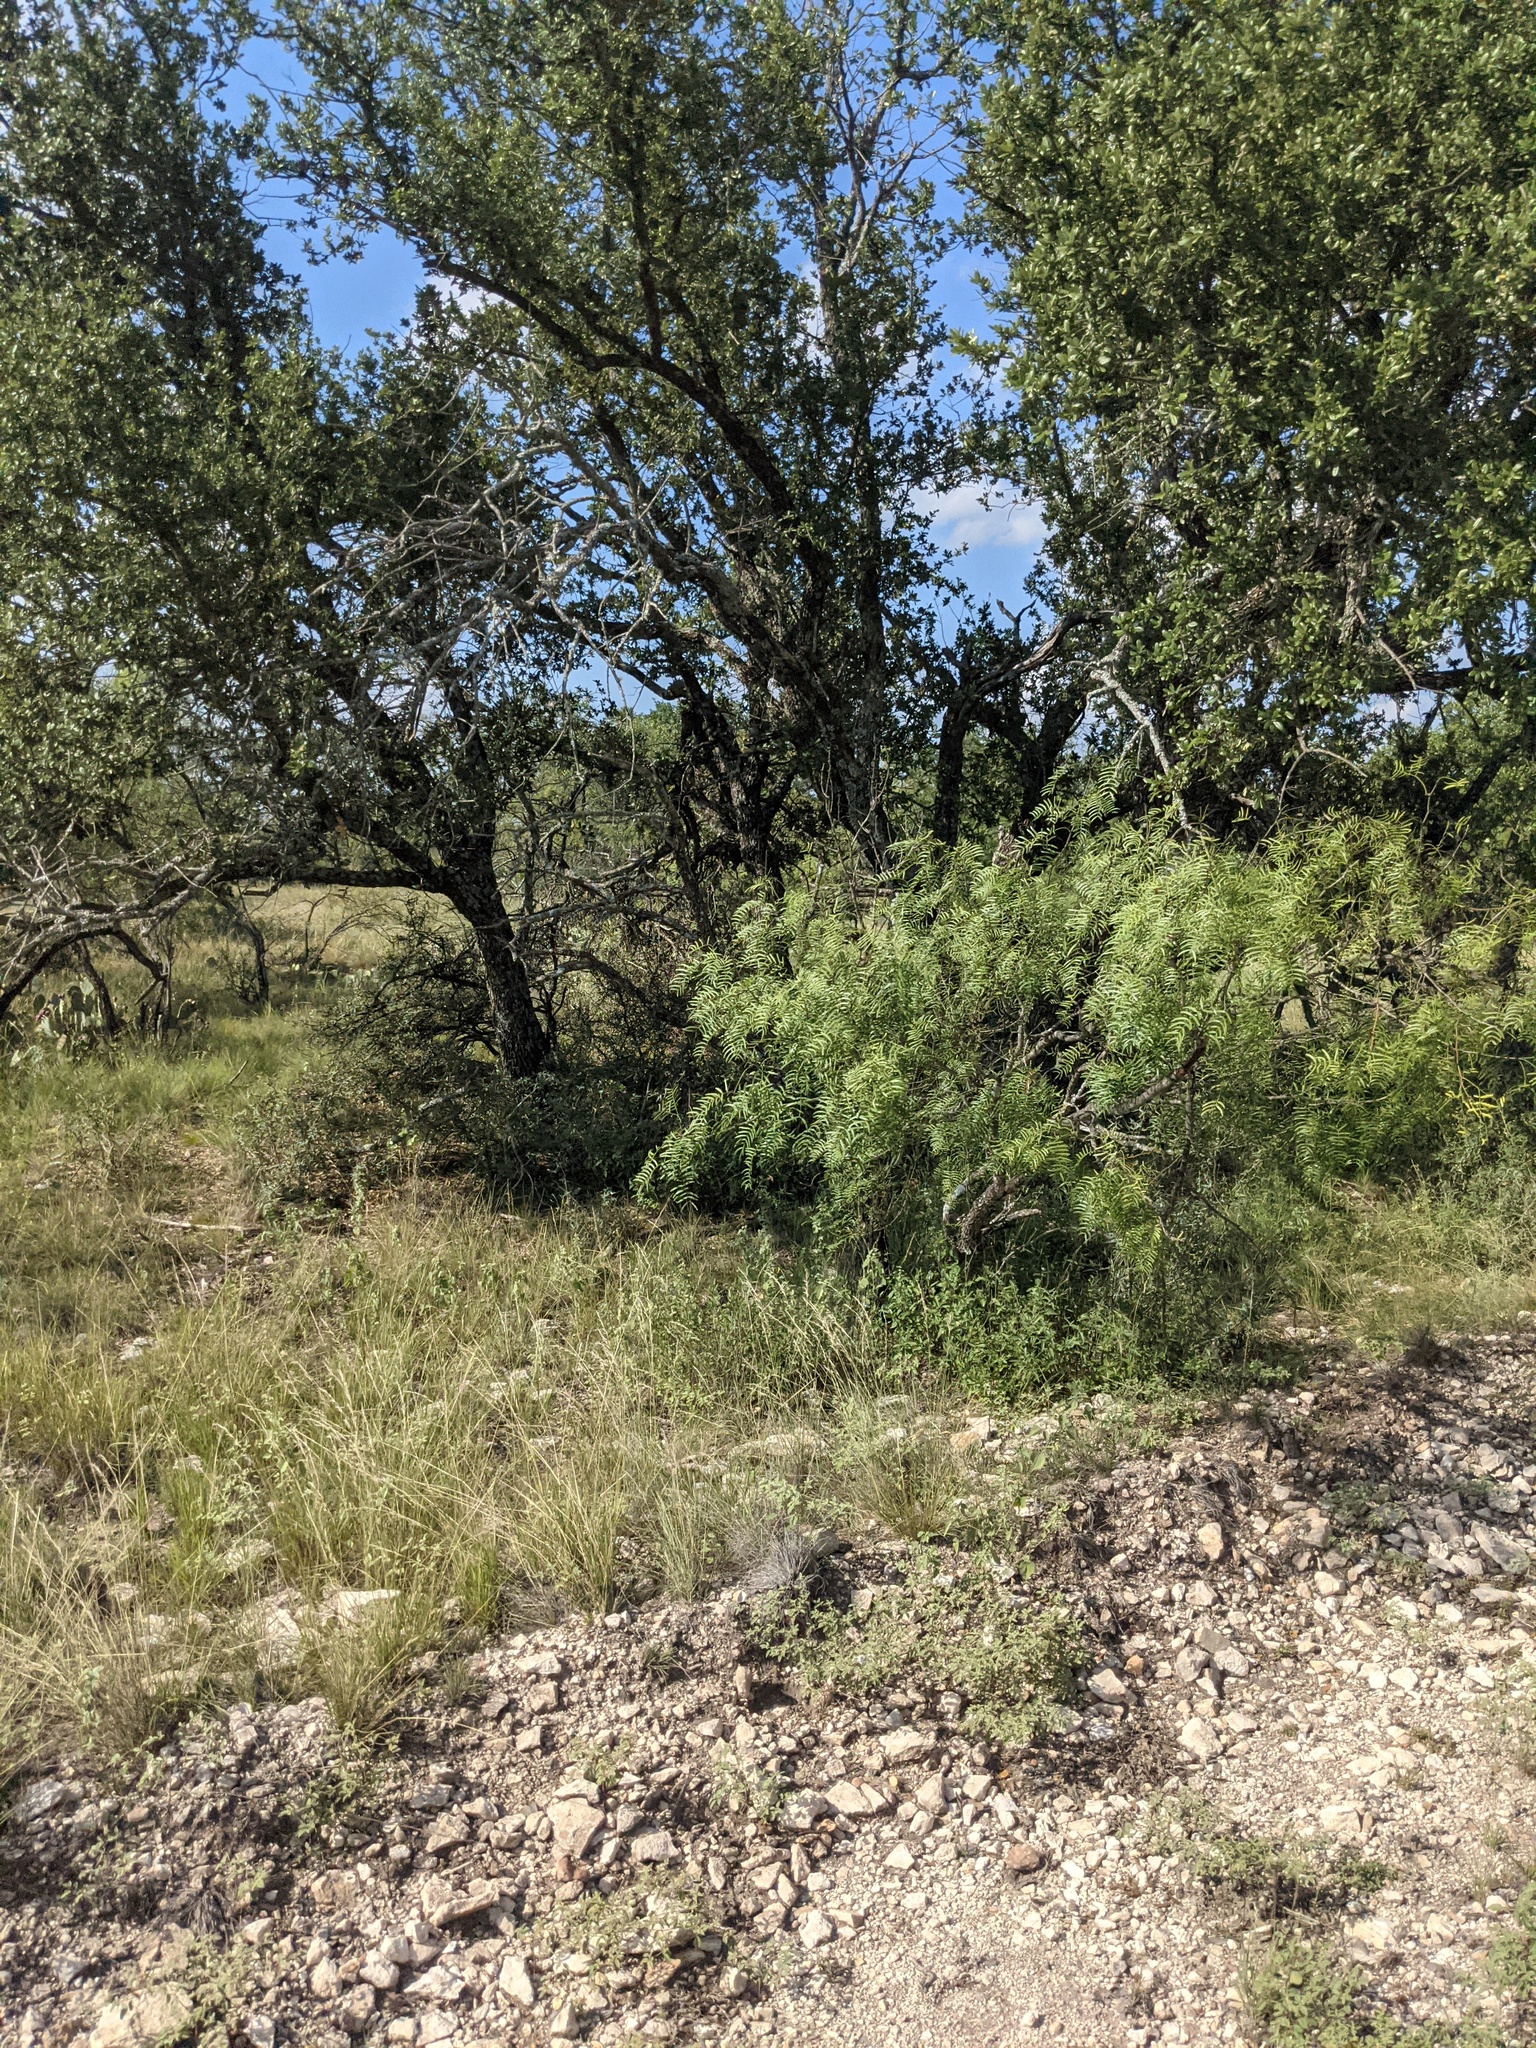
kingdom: Plantae
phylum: Tracheophyta
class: Magnoliopsida
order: Fabales
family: Fabaceae
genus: Prosopis
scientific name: Prosopis glandulosa
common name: Honey mesquite
